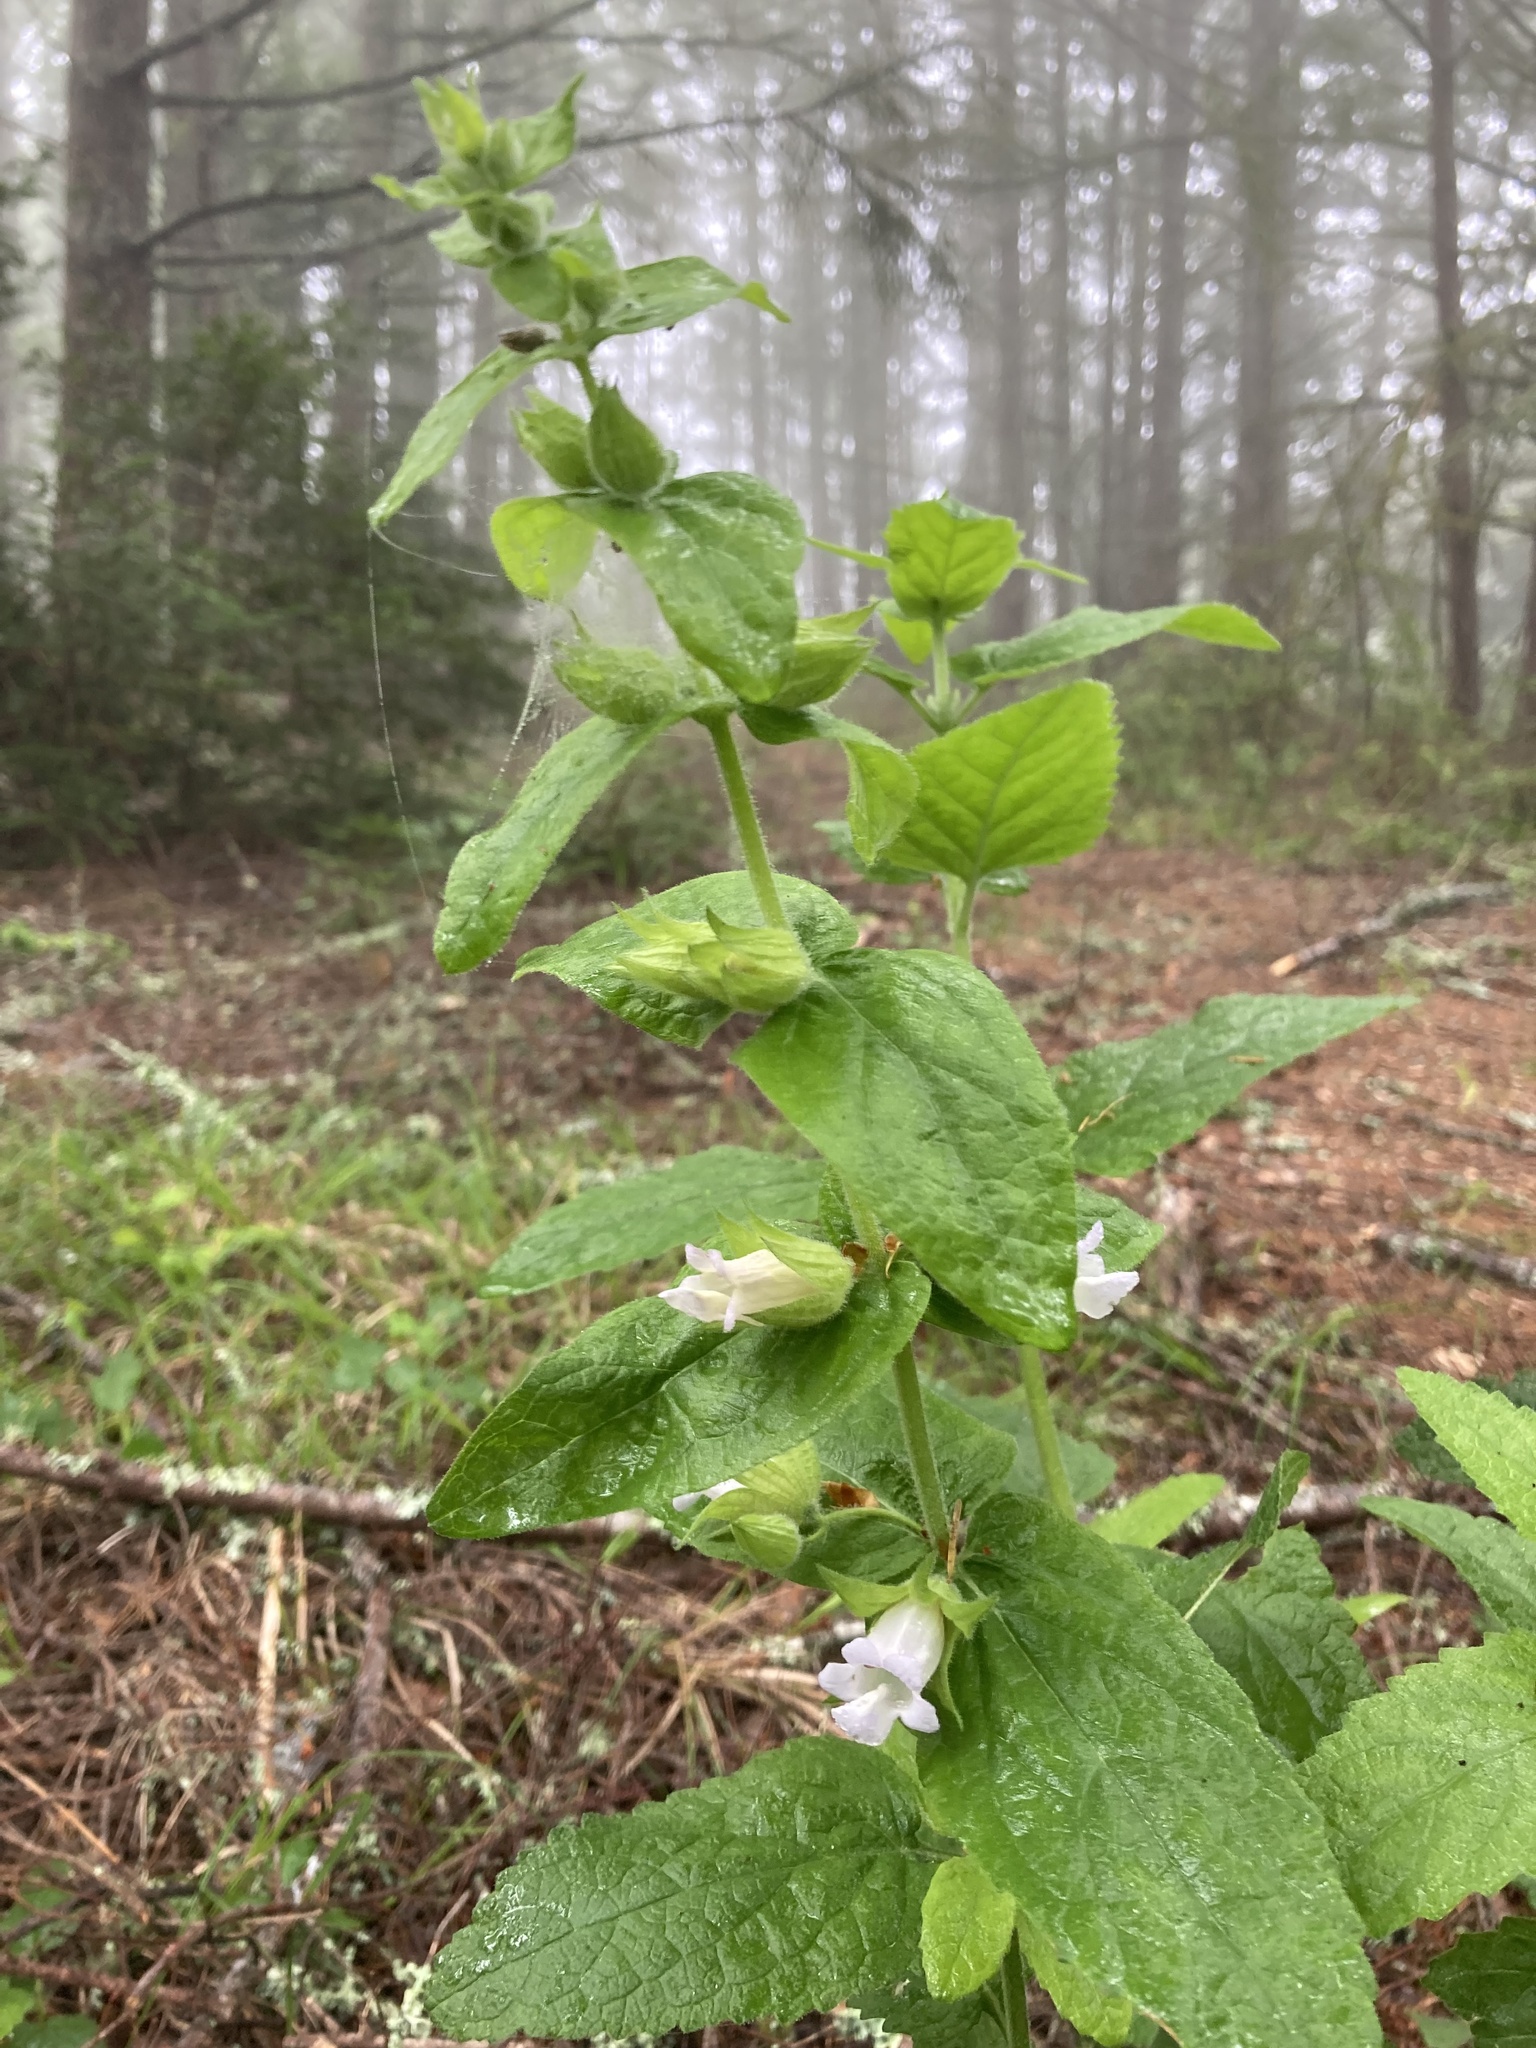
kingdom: Plantae
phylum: Tracheophyta
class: Magnoliopsida
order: Lamiales
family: Lamiaceae
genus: Lepechinia
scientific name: Lepechinia calycina
